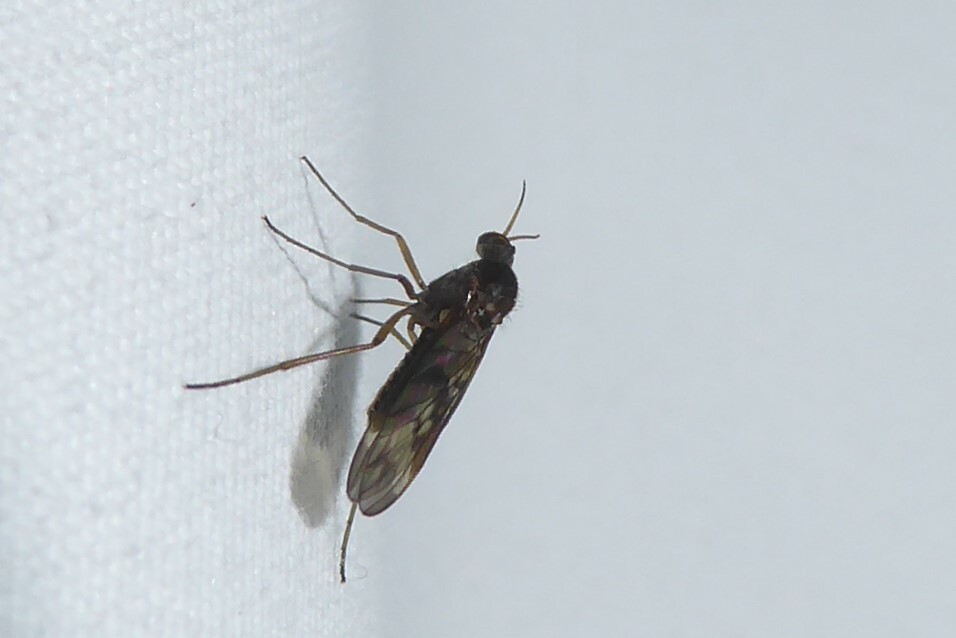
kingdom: Animalia
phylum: Arthropoda
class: Insecta
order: Diptera
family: Anisopodidae
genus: Sylvicola
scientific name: Sylvicola neozelandicus
